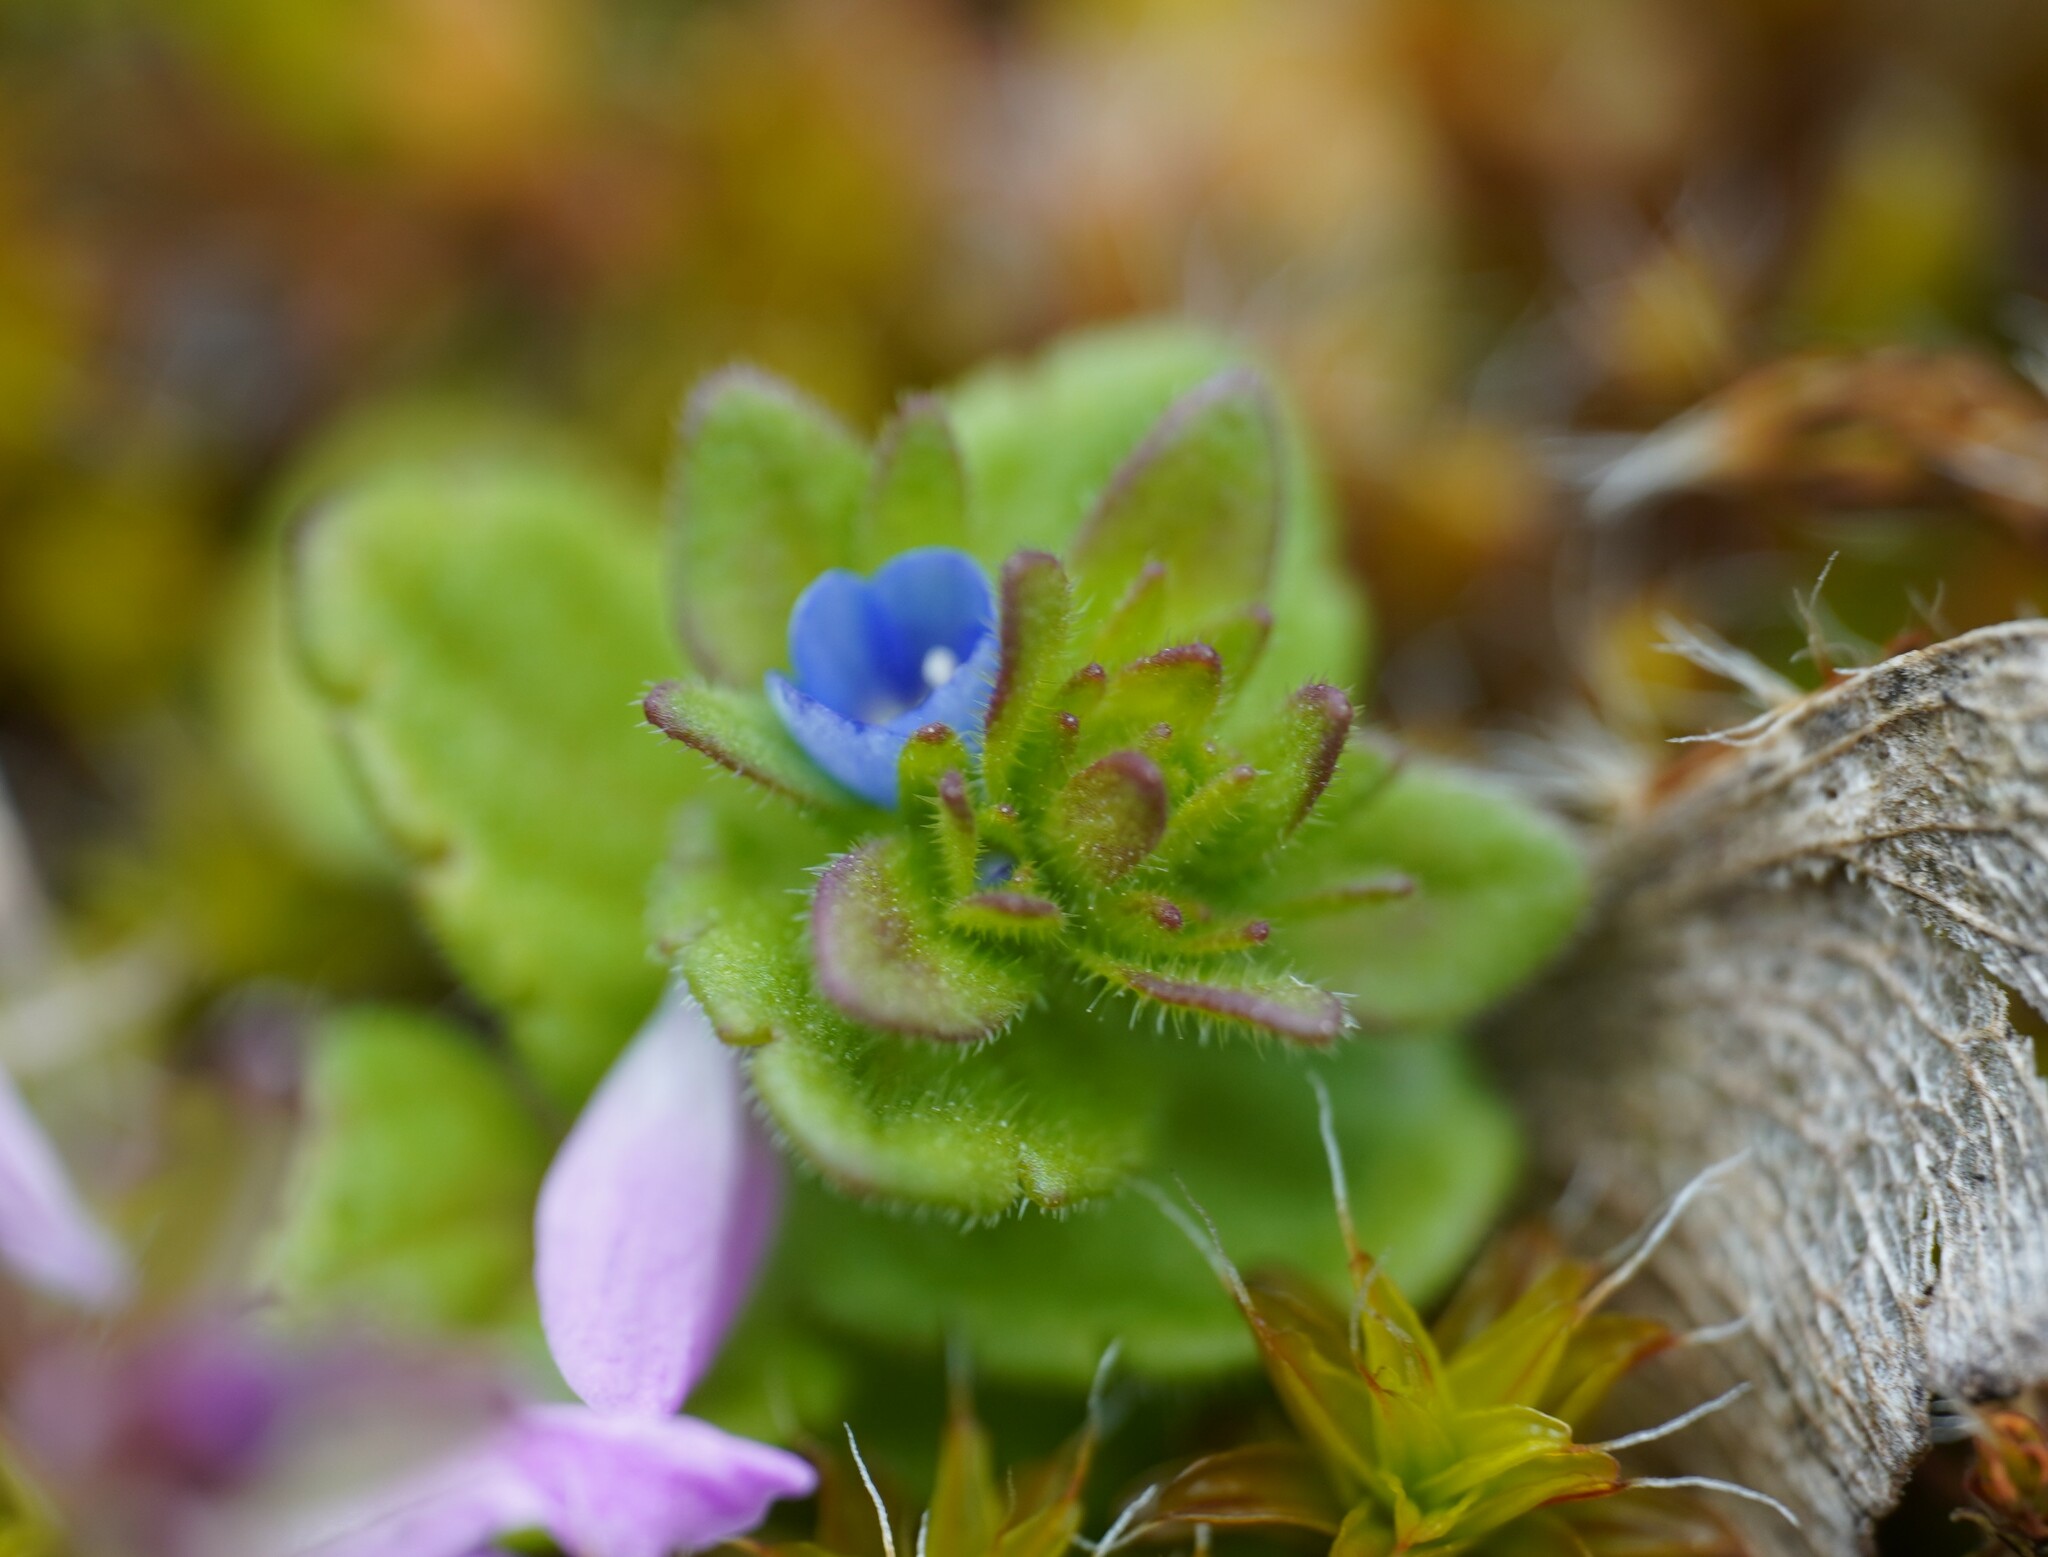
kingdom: Plantae
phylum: Tracheophyta
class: Magnoliopsida
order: Lamiales
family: Plantaginaceae
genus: Veronica
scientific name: Veronica arvensis
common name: Corn speedwell
